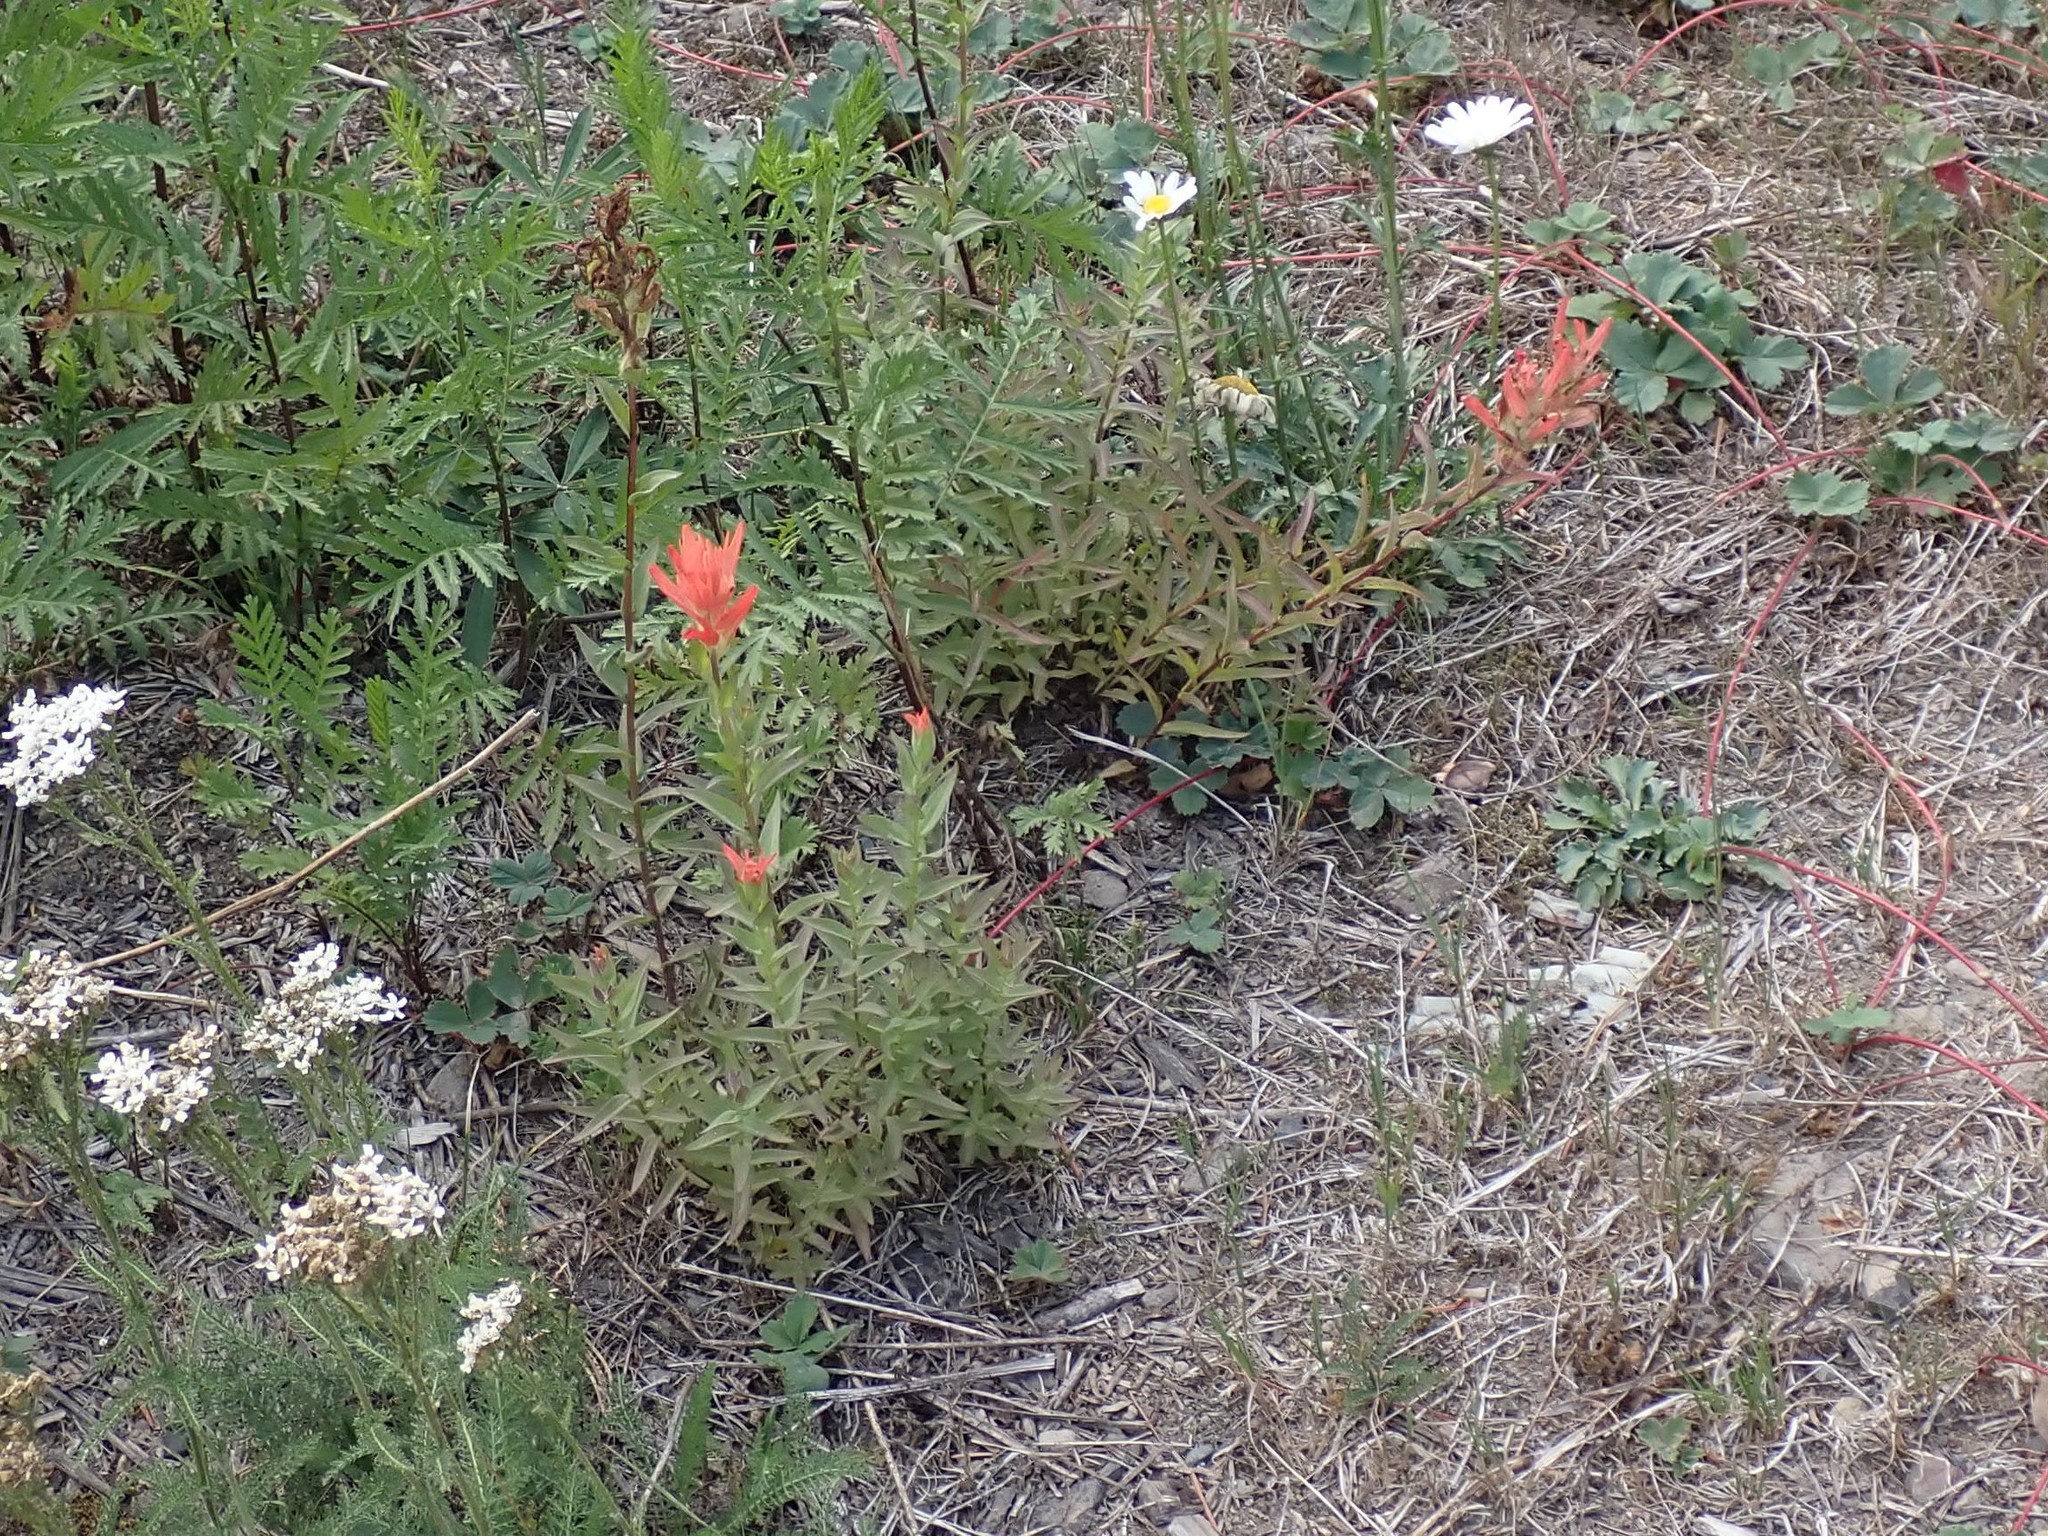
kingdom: Plantae
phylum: Tracheophyta
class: Magnoliopsida
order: Lamiales
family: Orobanchaceae
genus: Castilleja
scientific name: Castilleja miniata
